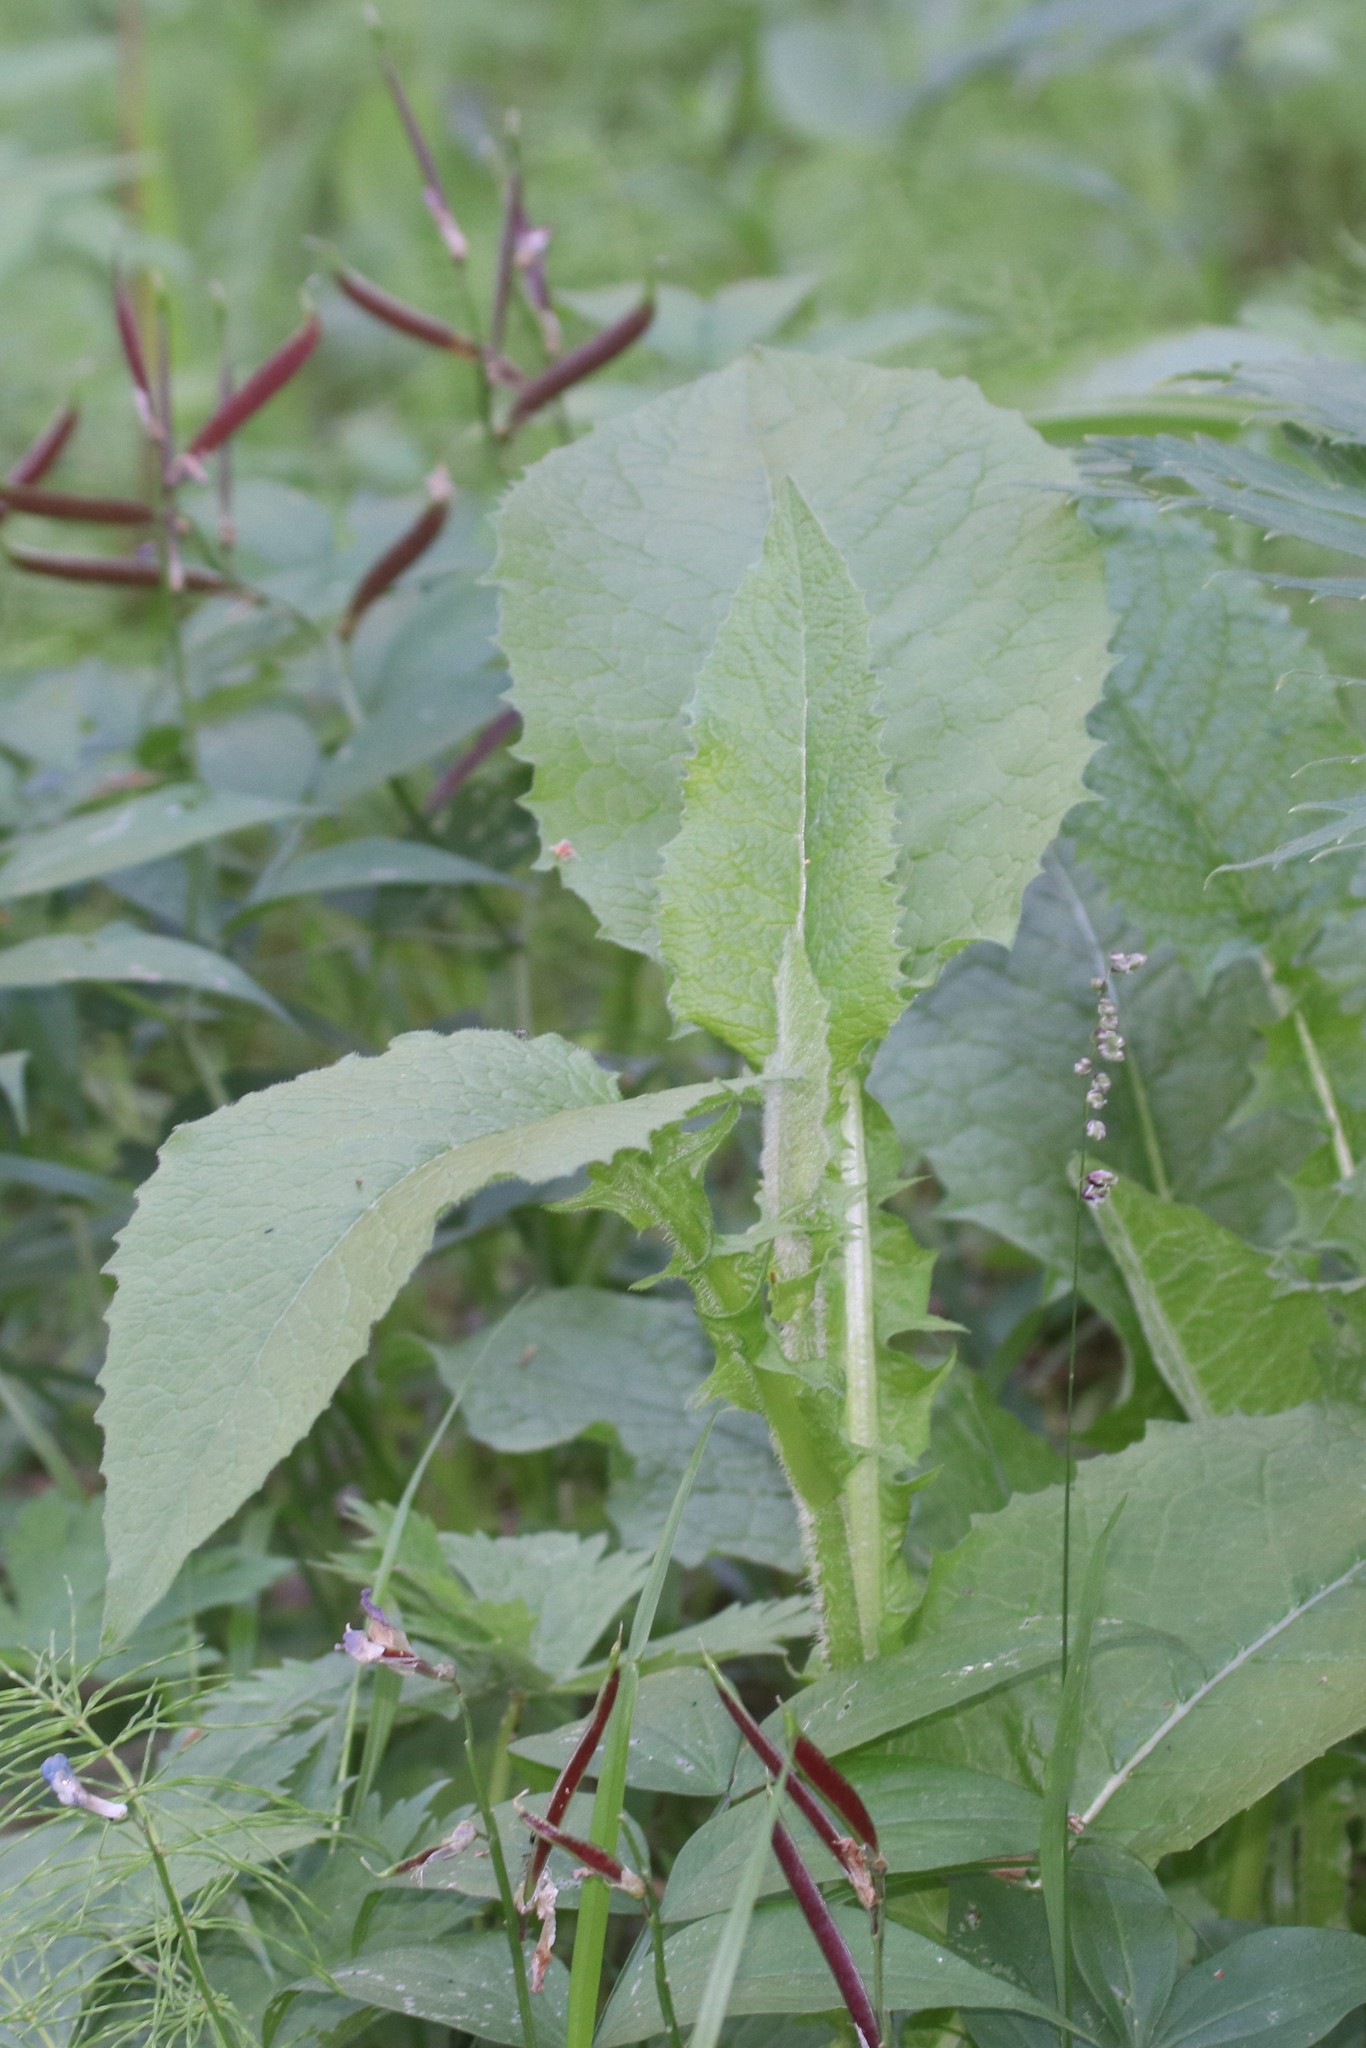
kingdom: Plantae
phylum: Tracheophyta
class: Magnoliopsida
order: Asterales
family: Asteraceae
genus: Crepis
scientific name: Crepis sibirica
